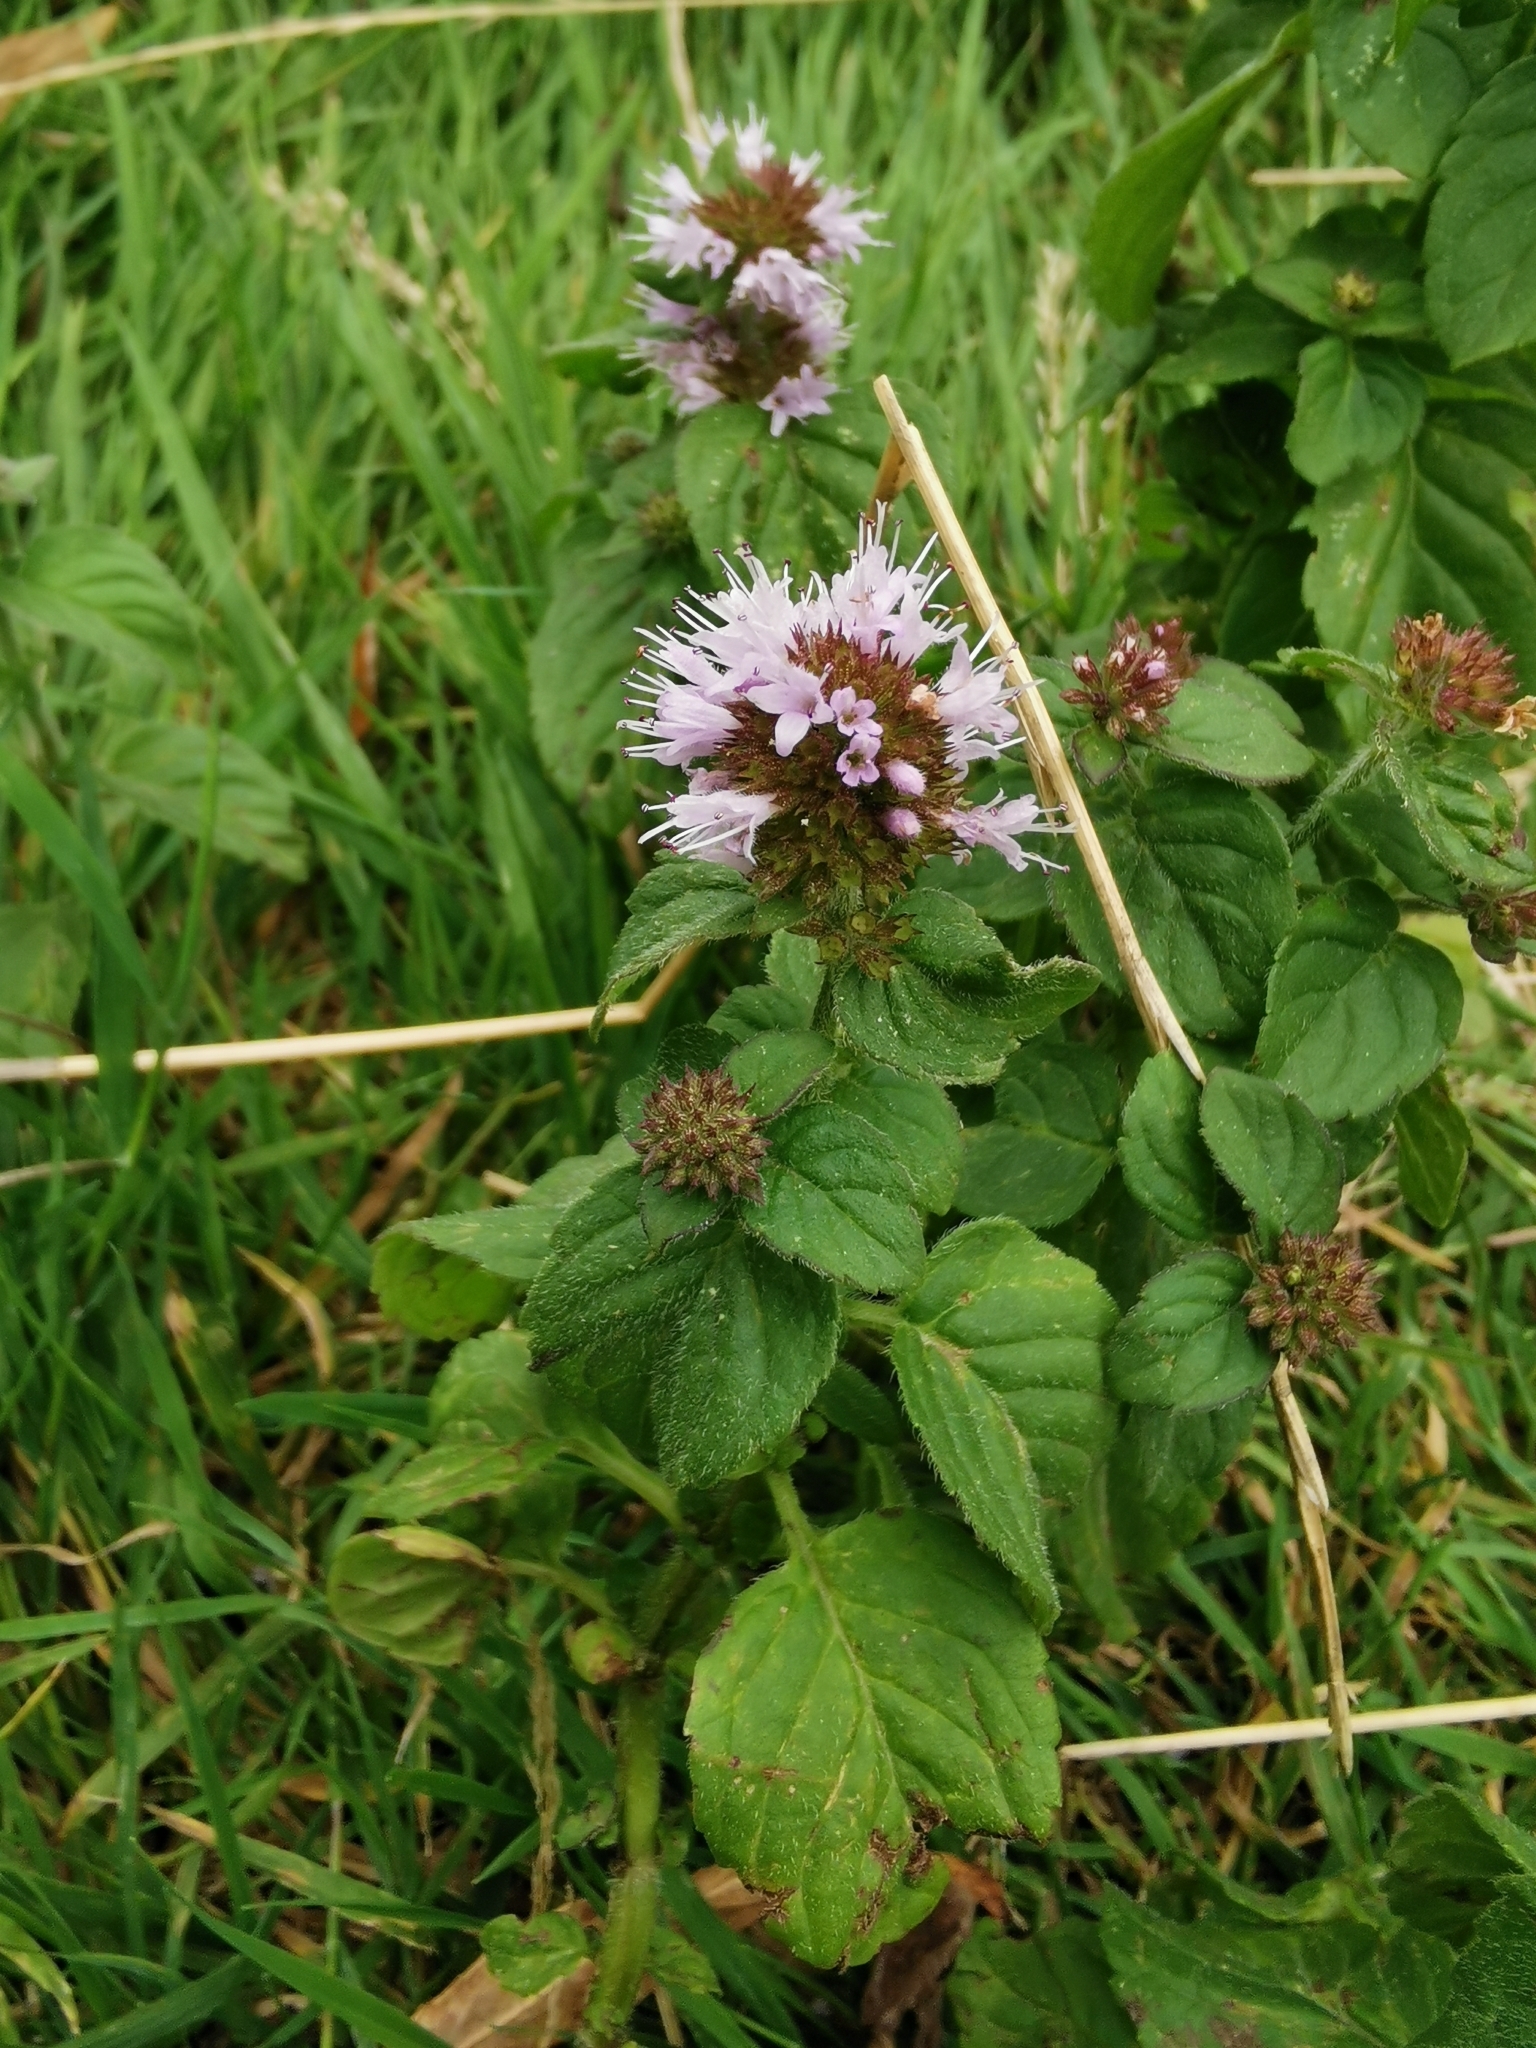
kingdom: Plantae
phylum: Tracheophyta
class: Magnoliopsida
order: Lamiales
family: Lamiaceae
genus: Mentha
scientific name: Mentha aquatica
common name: Water mint
